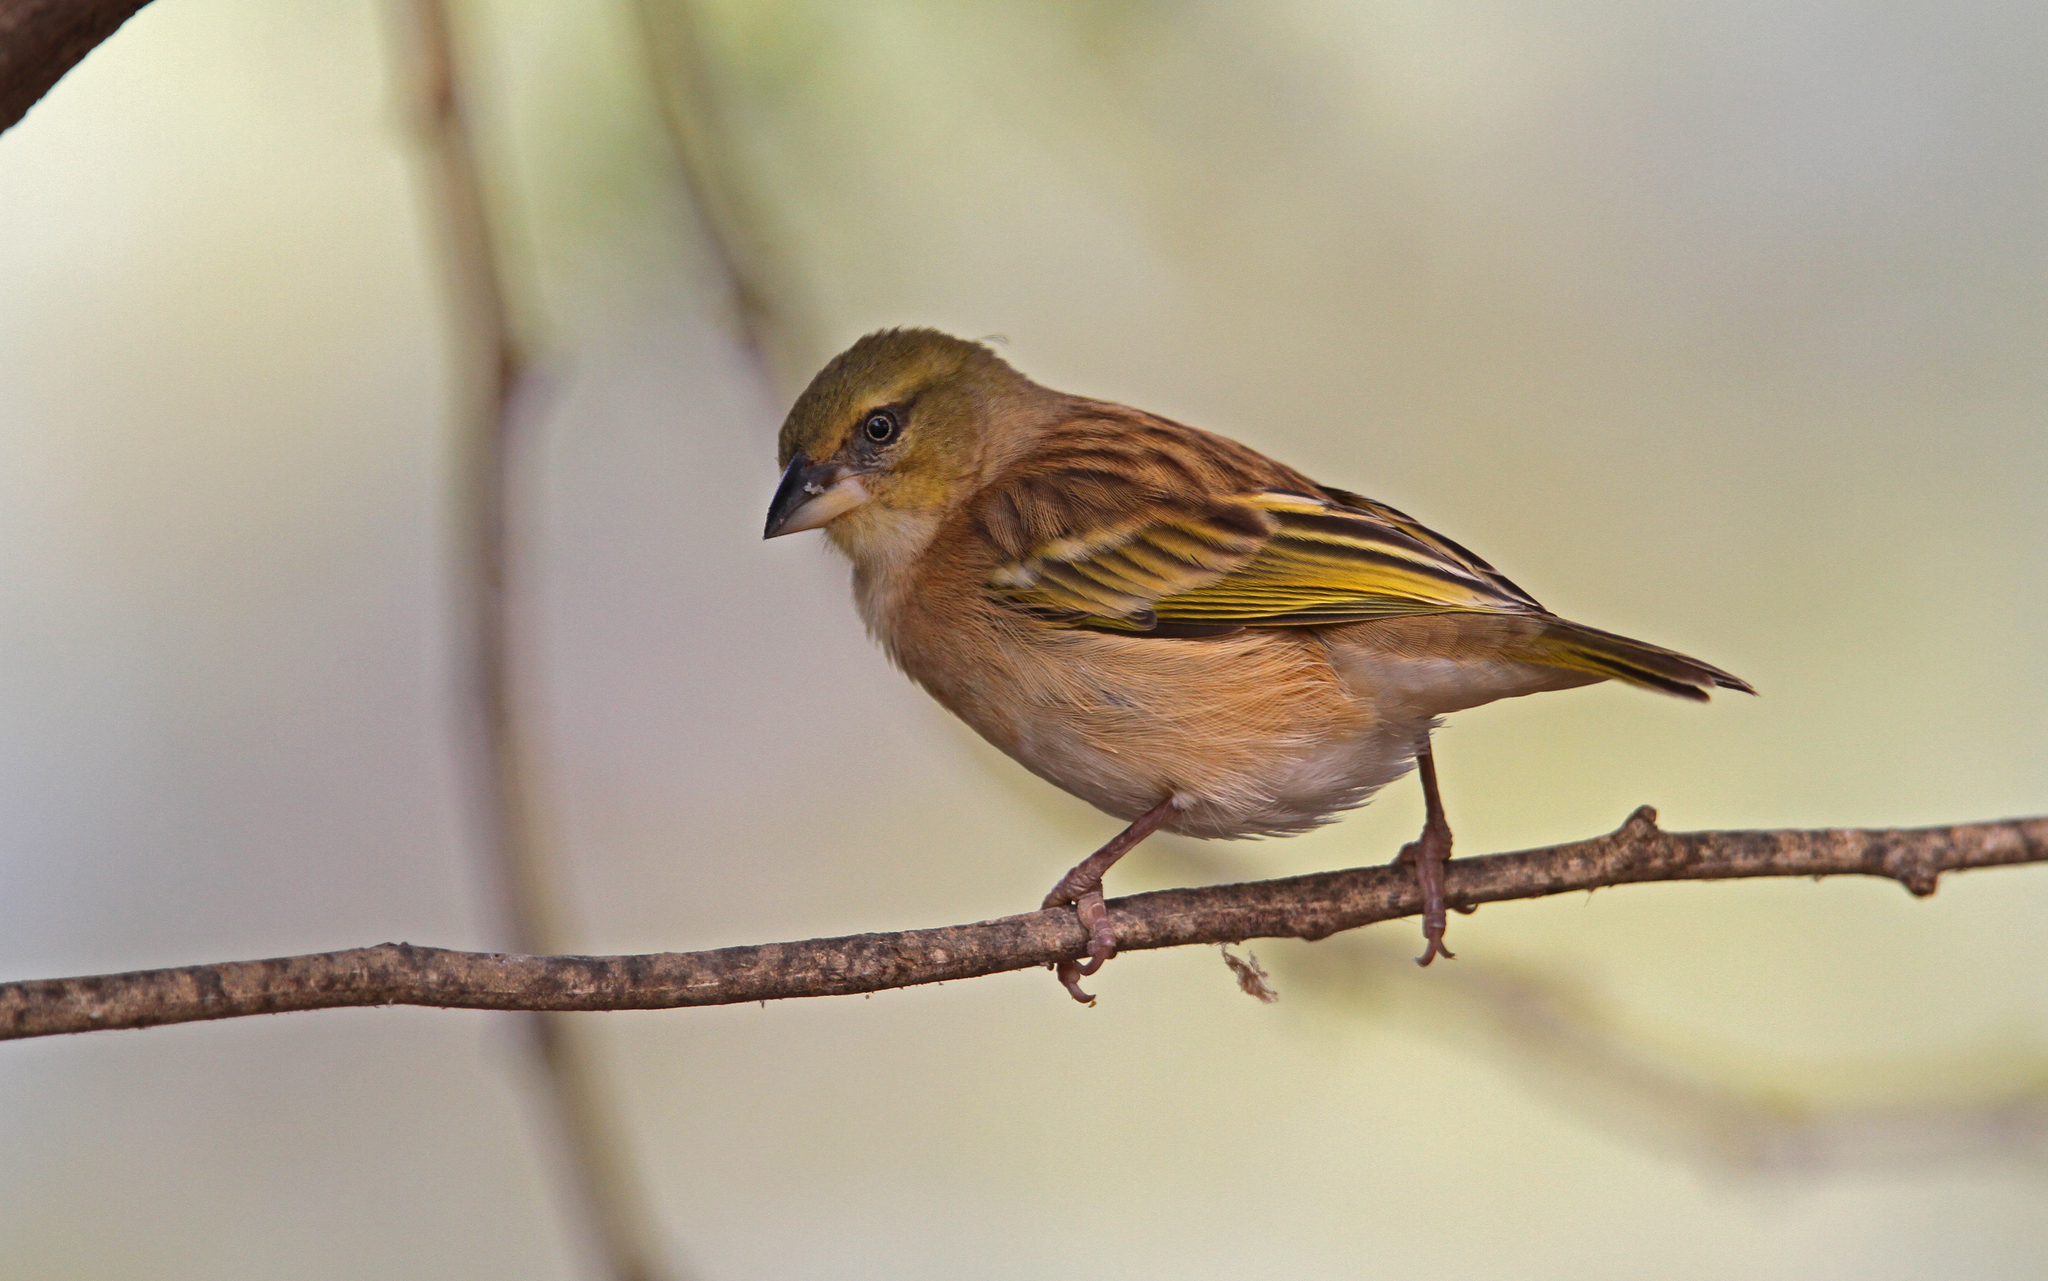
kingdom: Animalia
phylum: Chordata
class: Aves
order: Passeriformes
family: Ploceidae
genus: Ploceus
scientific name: Ploceus melanocephalus
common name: Black-headed weaver
